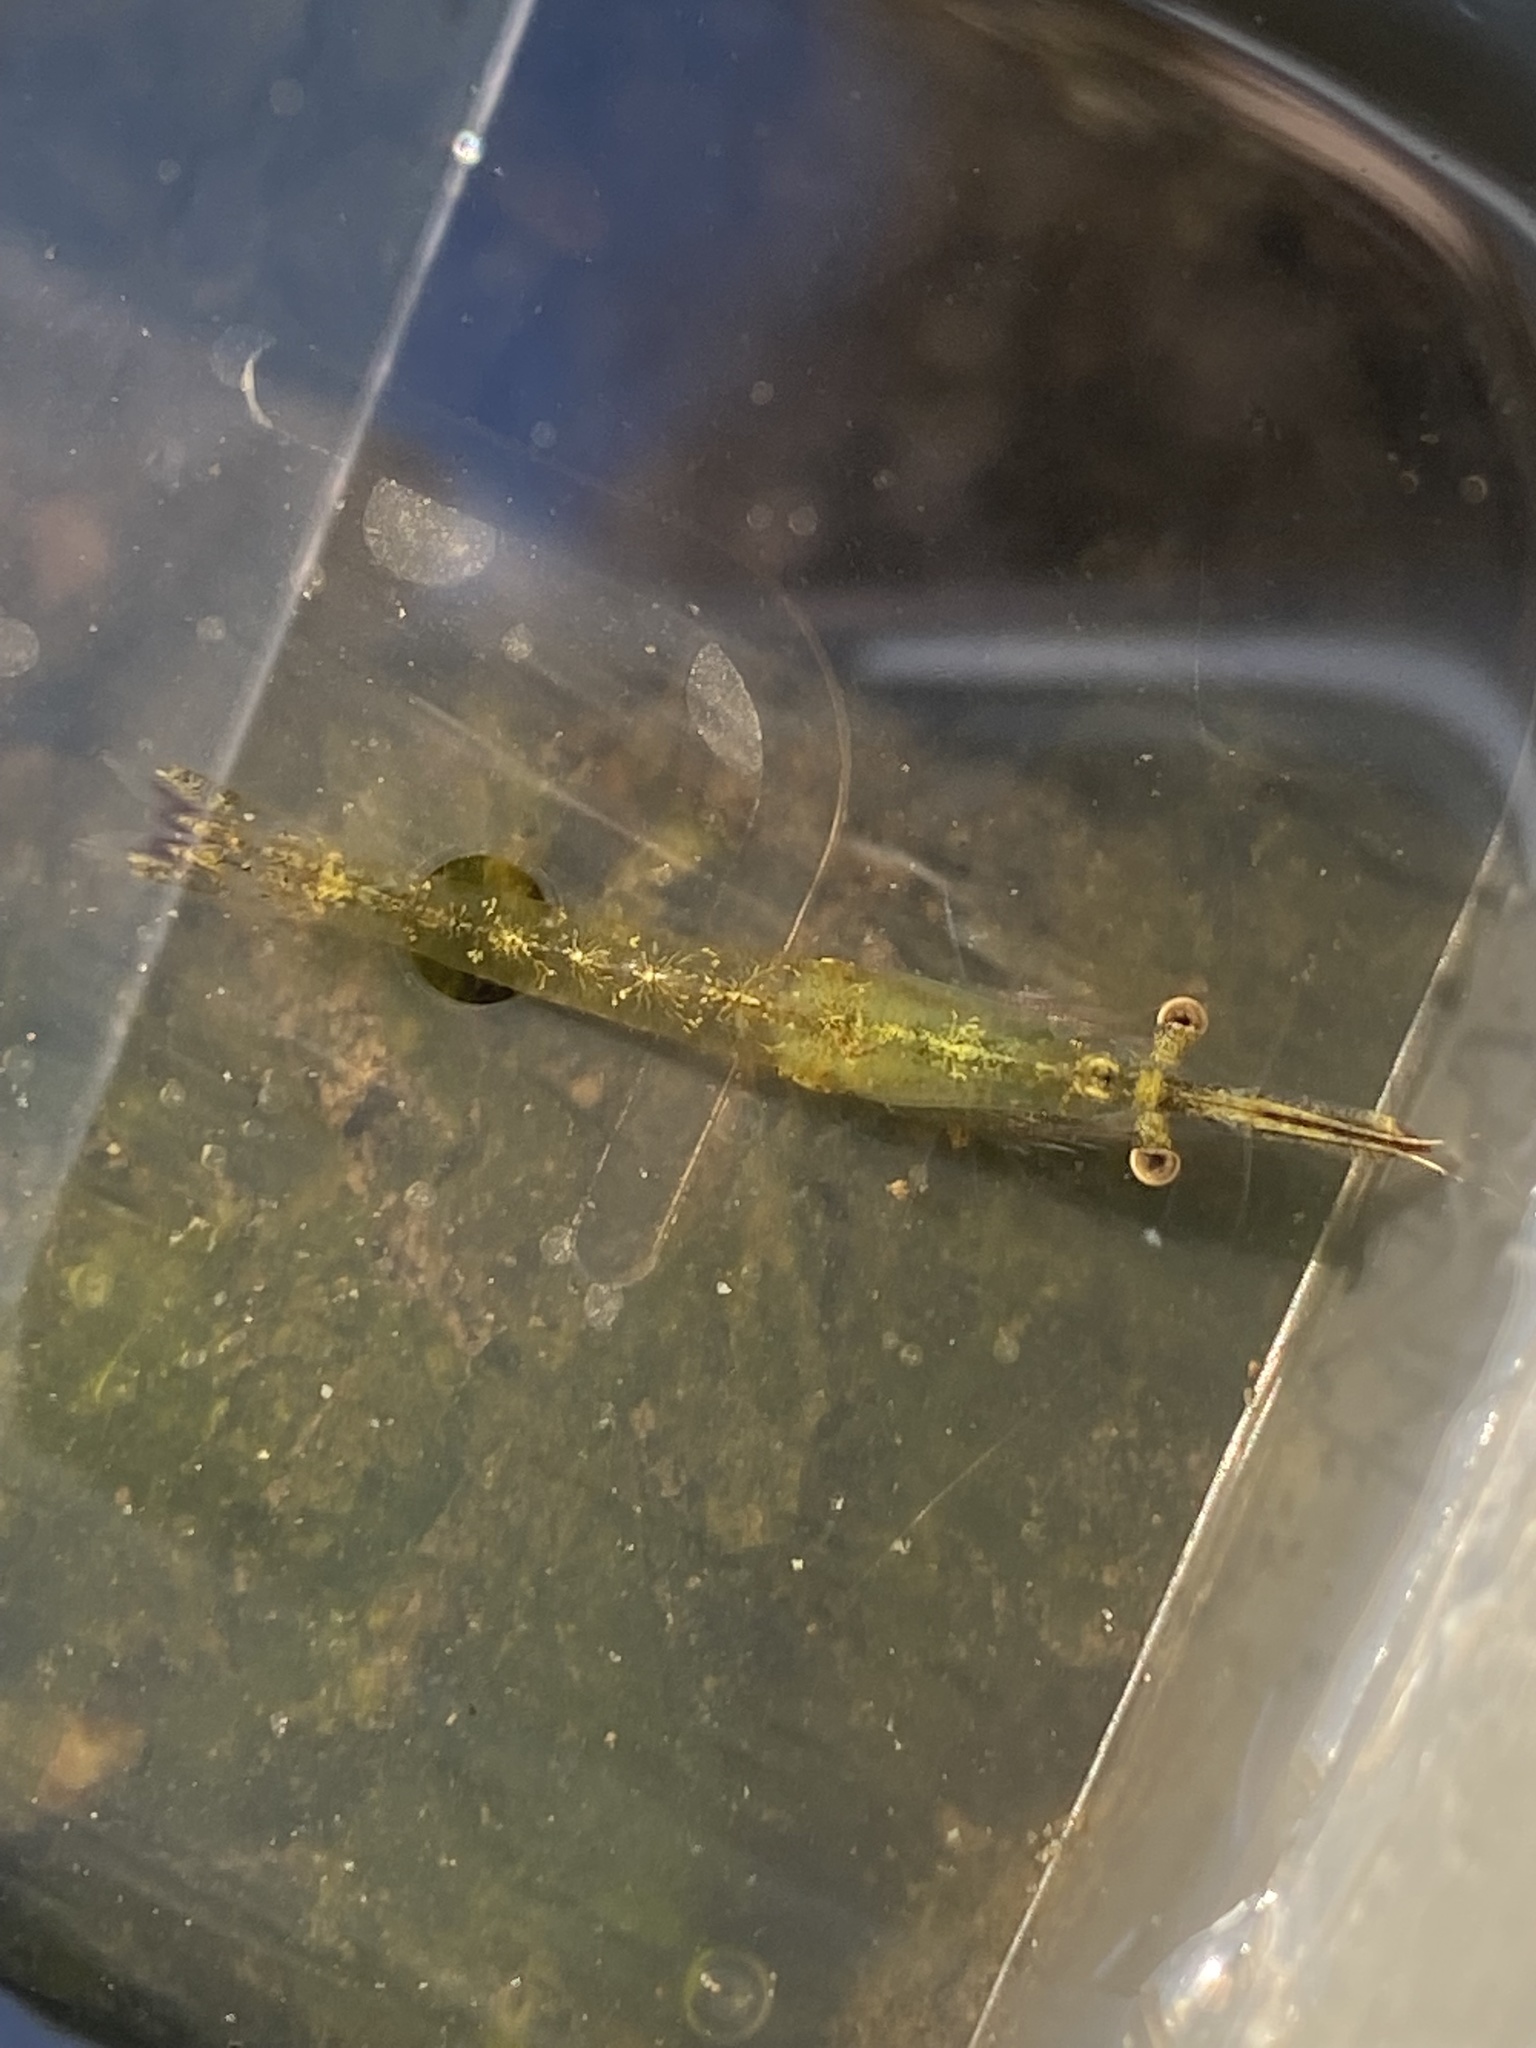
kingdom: Animalia
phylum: Arthropoda
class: Malacostraca
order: Mysida
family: Mysidae
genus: Praunus
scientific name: Praunus flexuosus
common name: Chameleon shrimp
